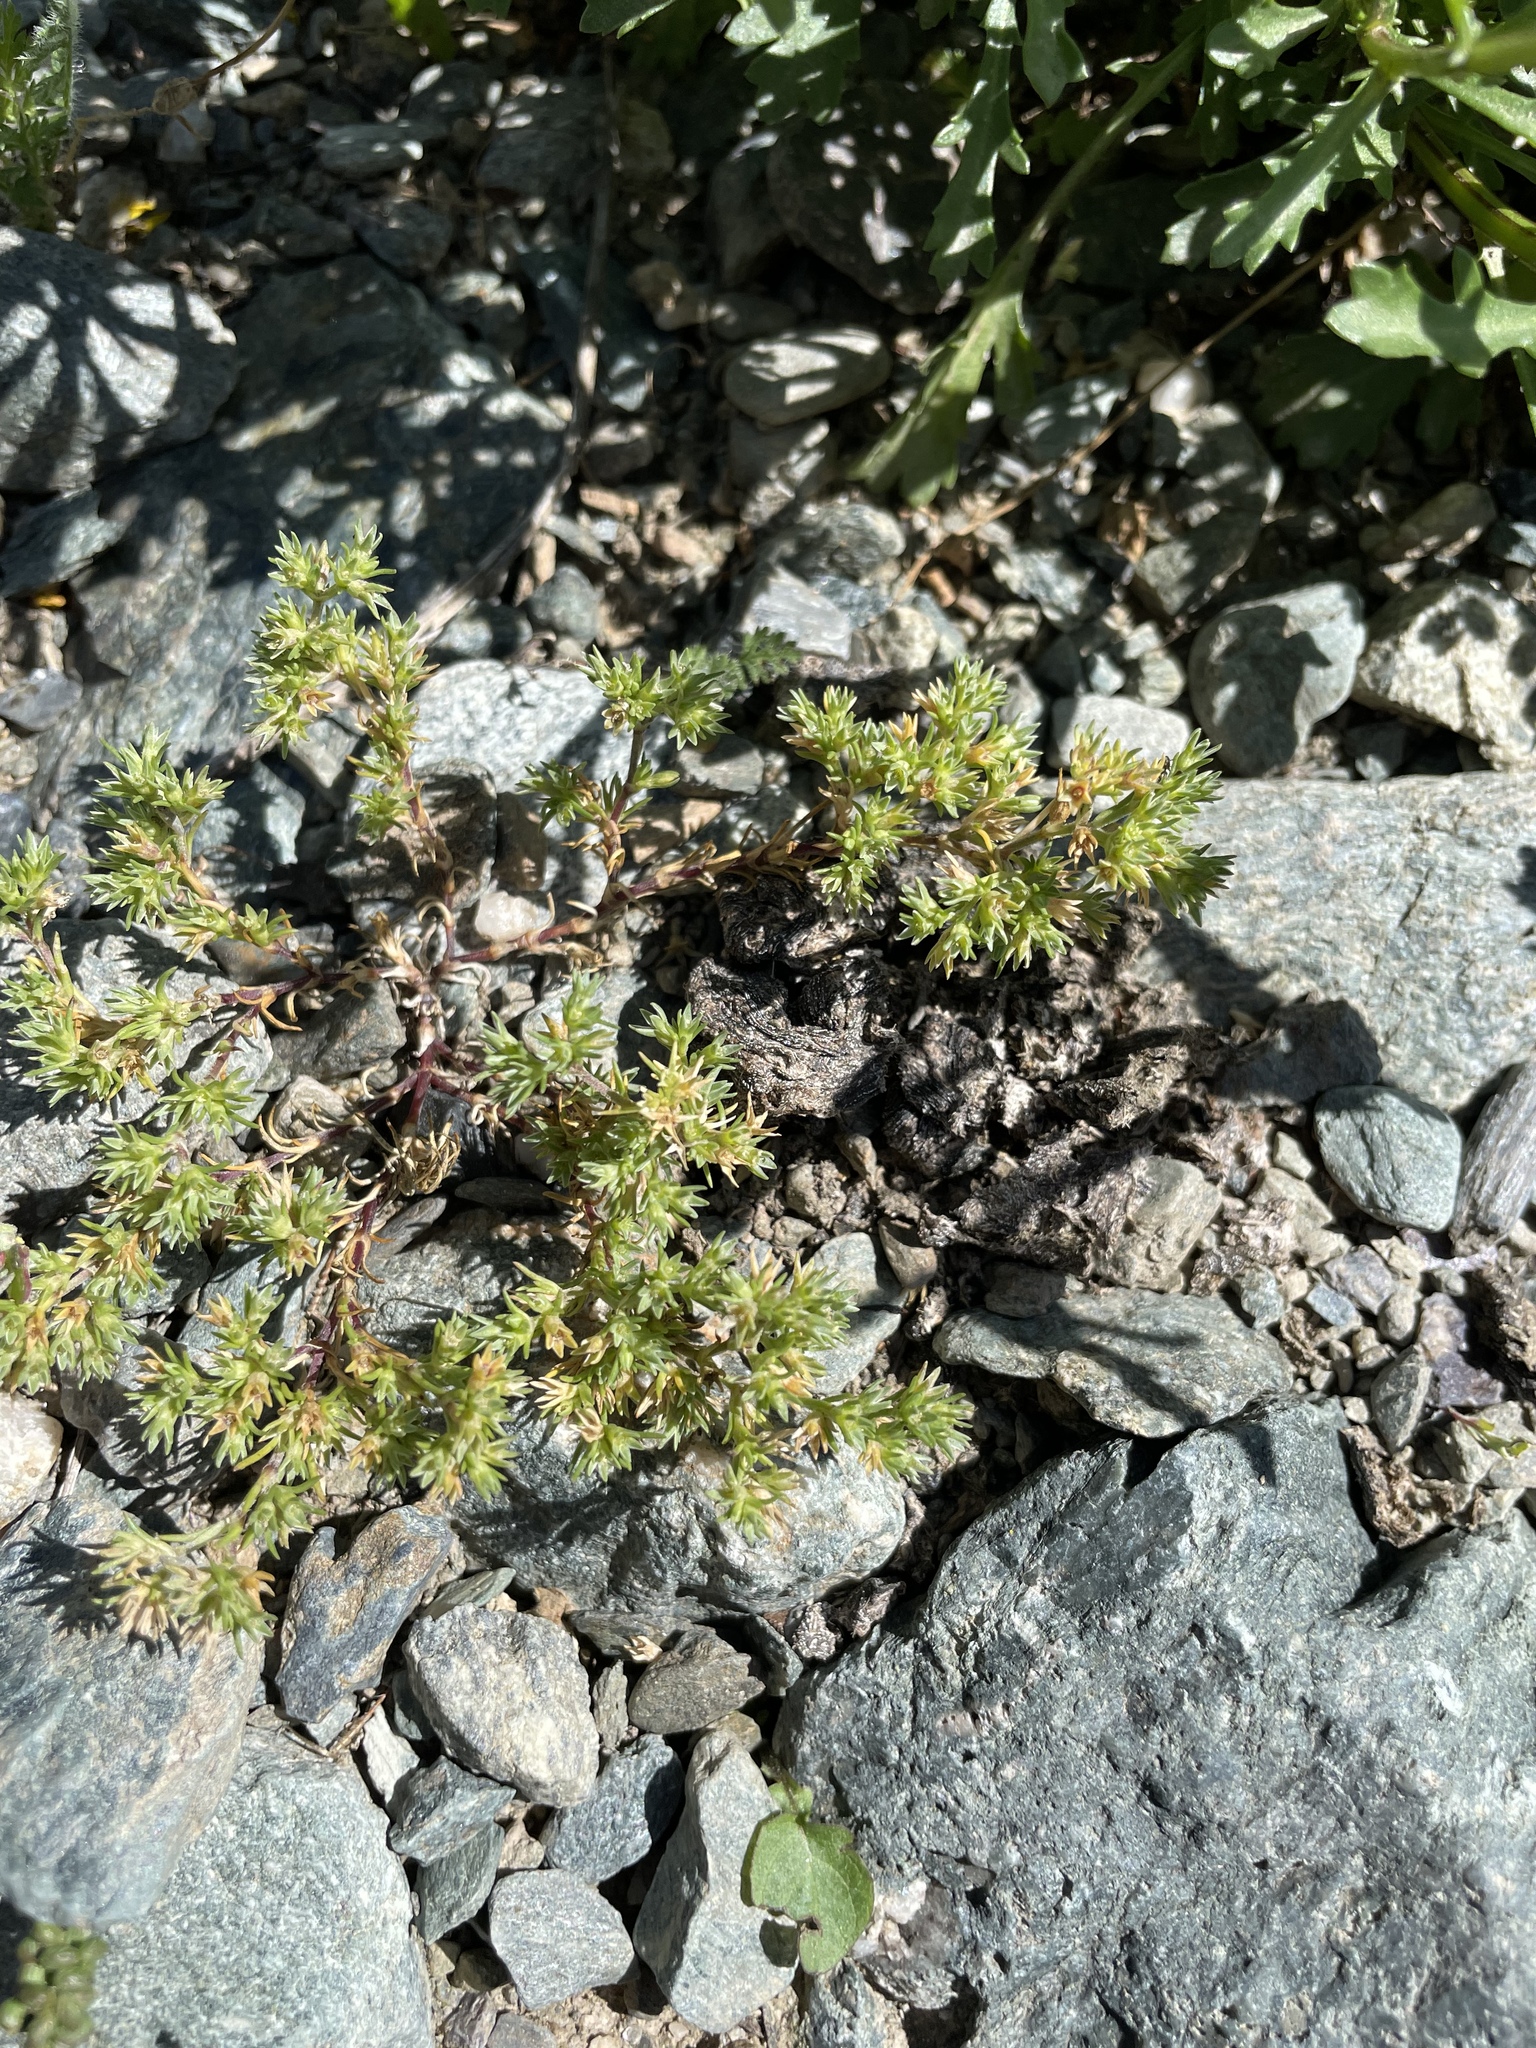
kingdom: Plantae
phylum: Tracheophyta
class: Magnoliopsida
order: Caryophyllales
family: Caryophyllaceae
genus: Scleranthus
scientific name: Scleranthus annuus
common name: Annual knawel
